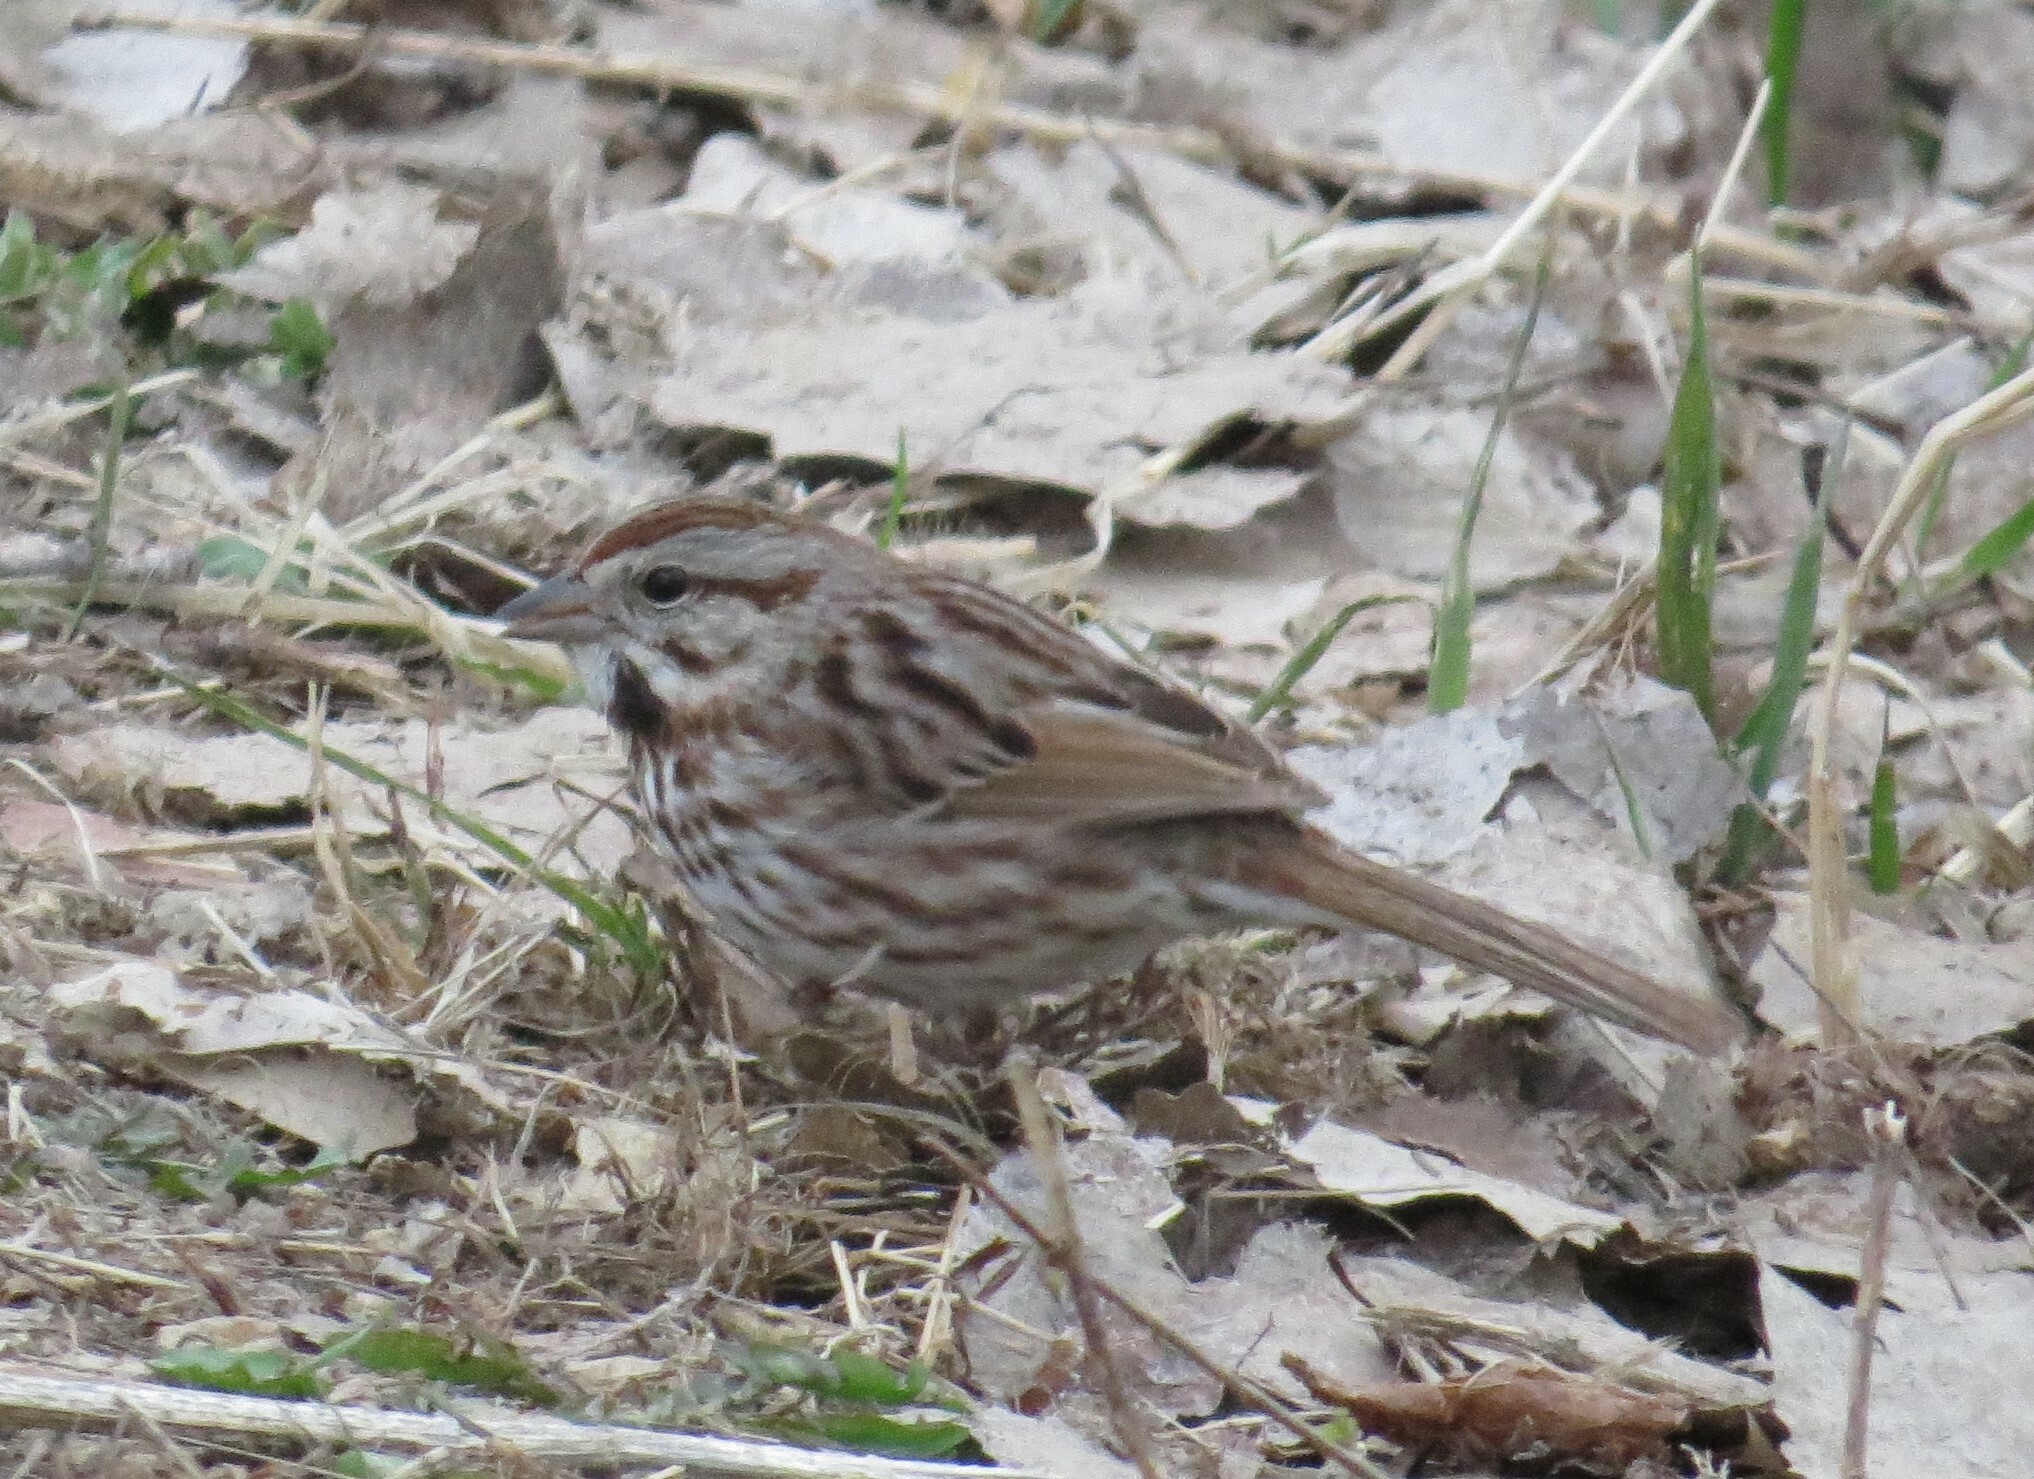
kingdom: Animalia
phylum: Chordata
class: Aves
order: Passeriformes
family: Passerellidae
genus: Melospiza
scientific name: Melospiza melodia
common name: Song sparrow
